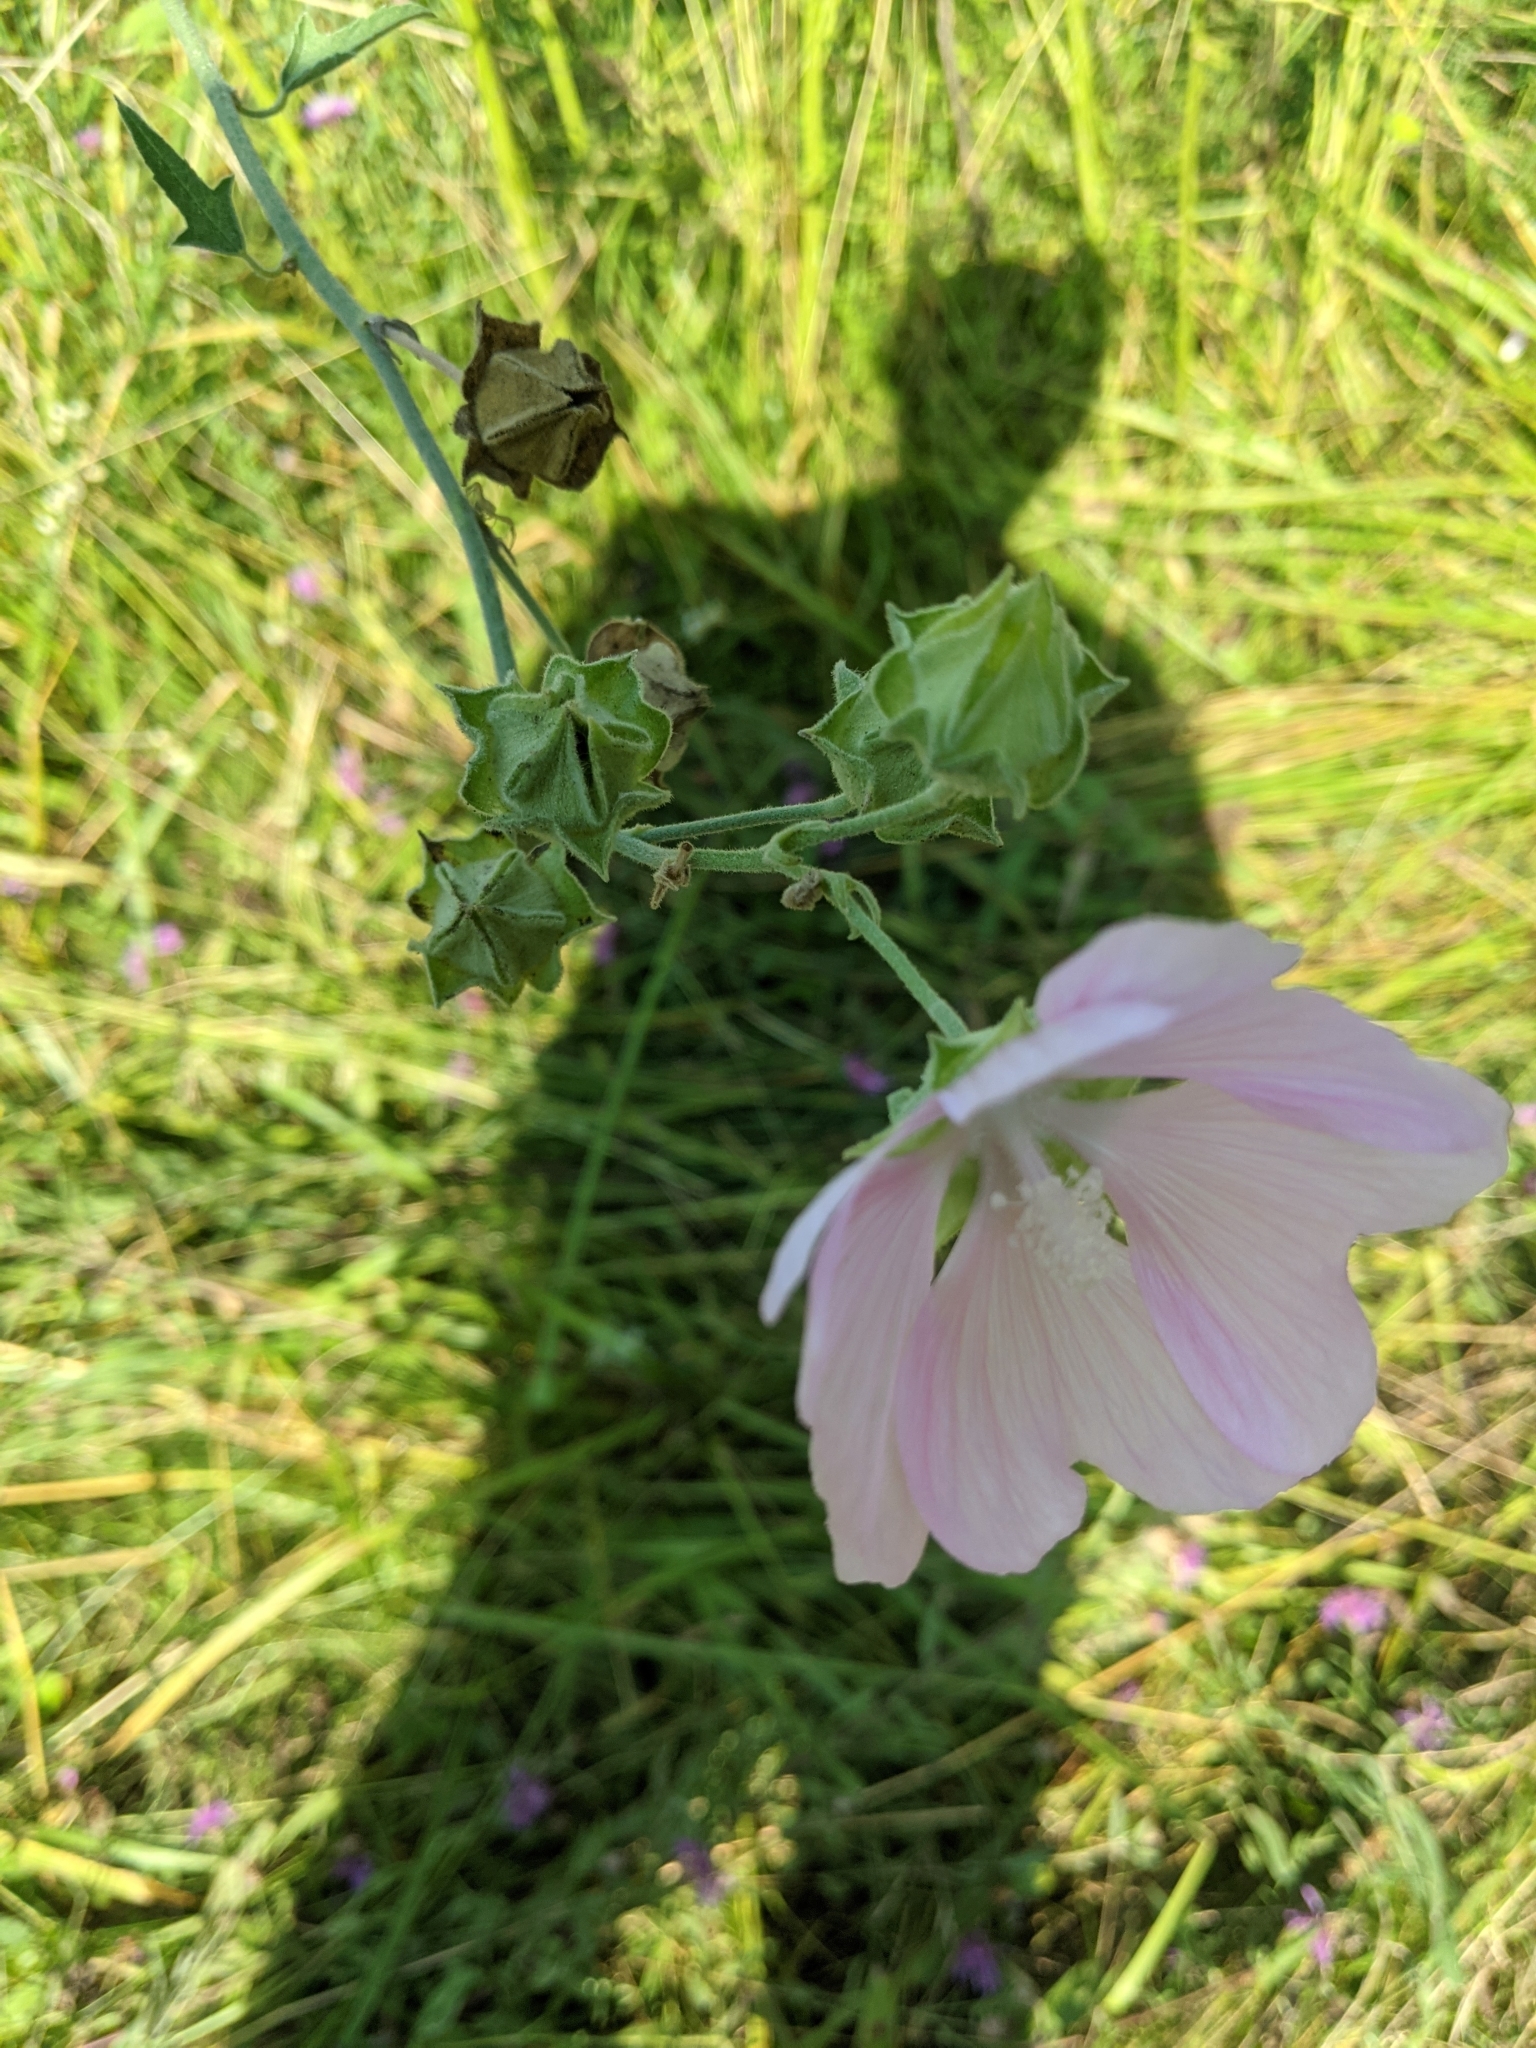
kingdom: Plantae
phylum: Tracheophyta
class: Magnoliopsida
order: Malvales
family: Malvaceae
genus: Malva
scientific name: Malva thuringiaca
